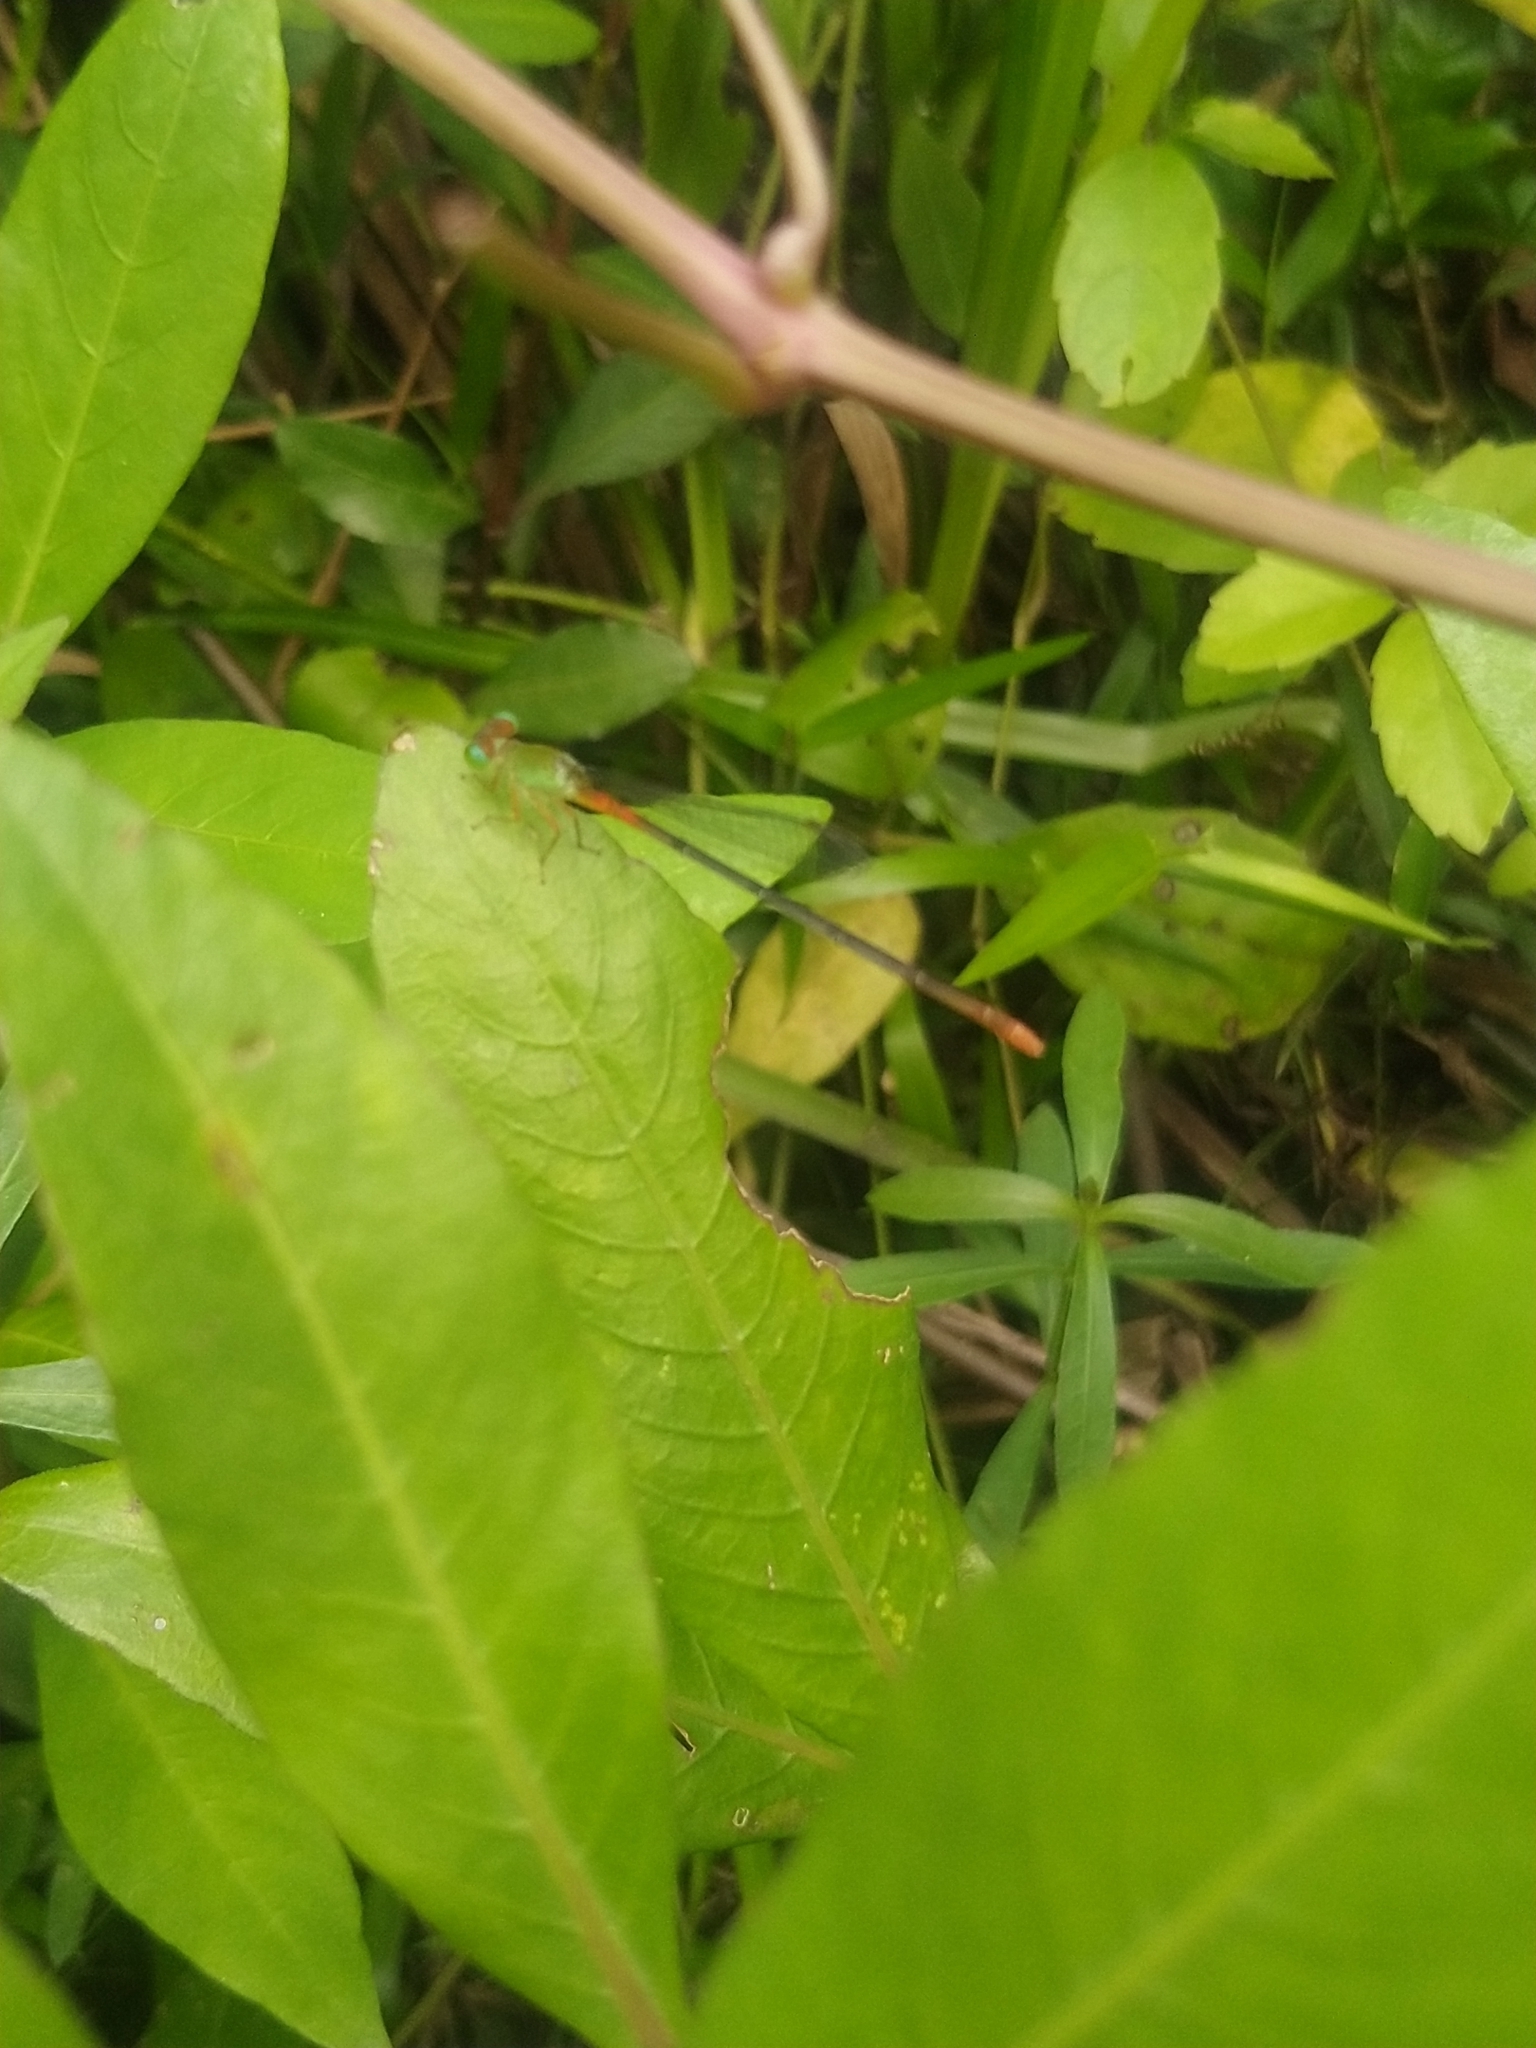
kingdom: Animalia
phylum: Arthropoda
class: Insecta
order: Odonata
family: Coenagrionidae
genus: Ceriagrion
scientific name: Ceriagrion cerinorubellum
